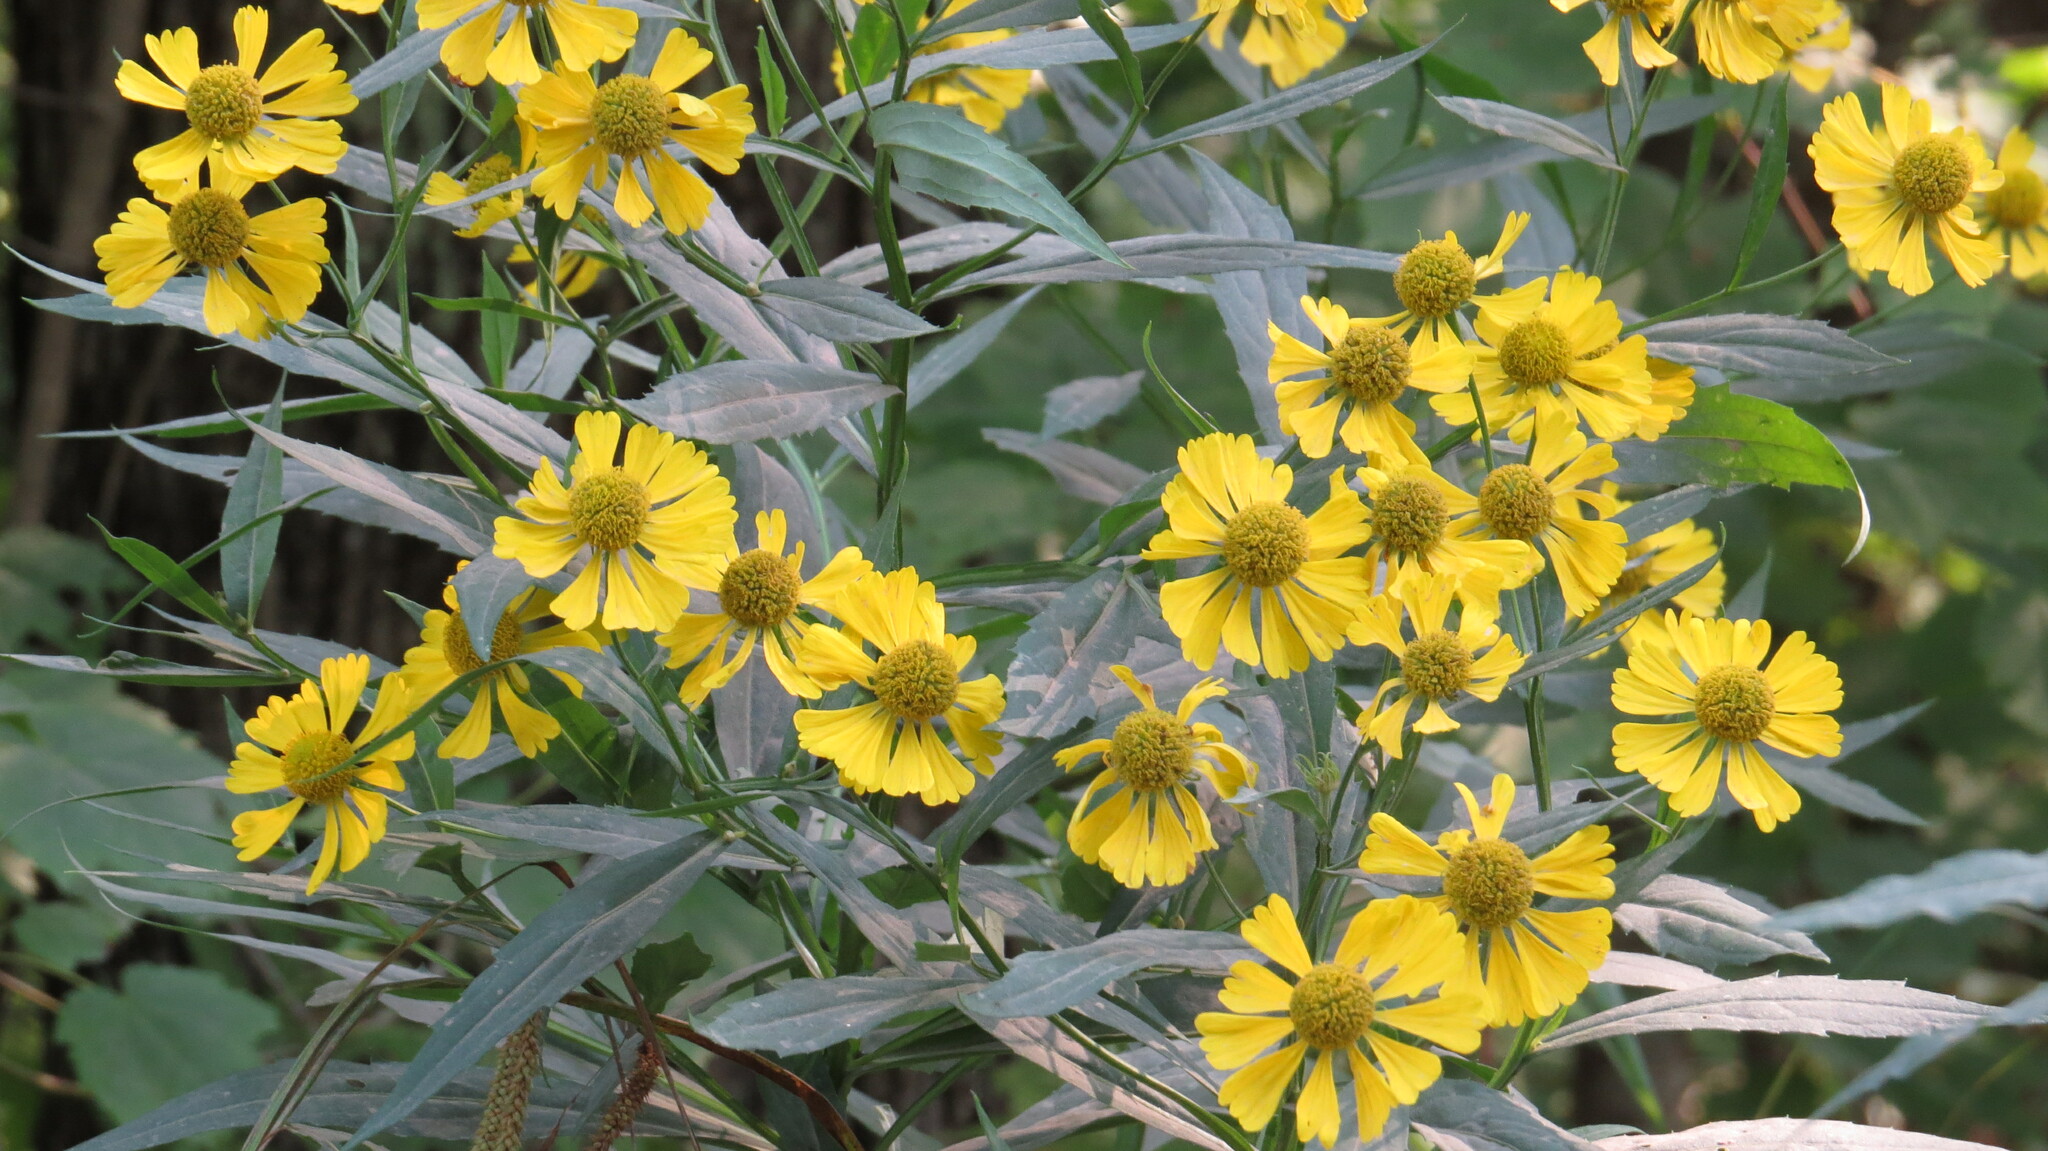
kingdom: Plantae
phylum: Tracheophyta
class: Magnoliopsida
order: Asterales
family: Asteraceae
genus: Helenium
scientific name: Helenium autumnale
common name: Sneezeweed
